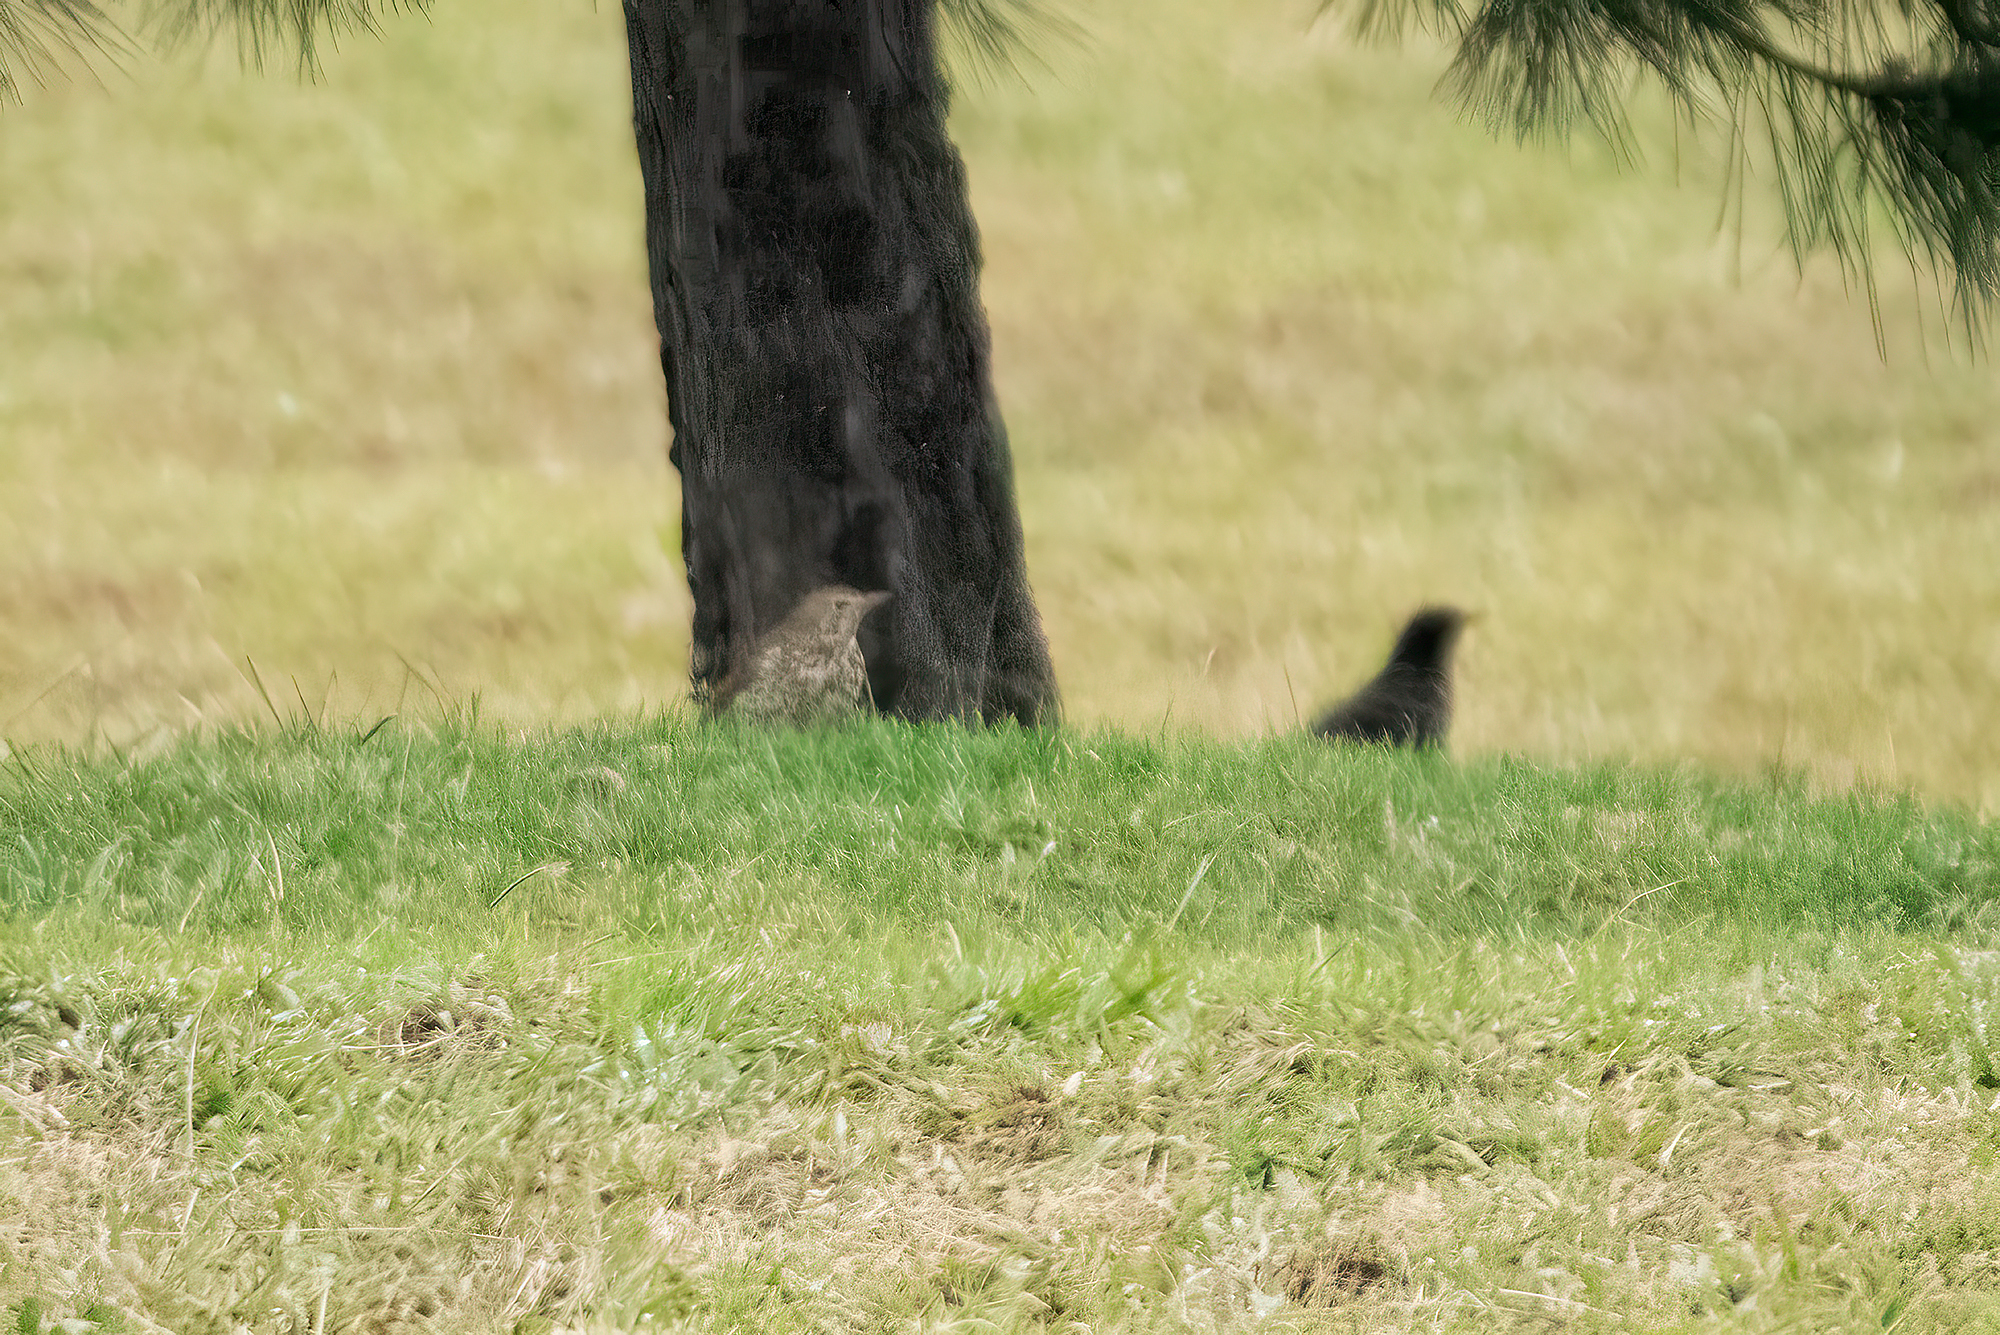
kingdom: Animalia
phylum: Chordata
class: Aves
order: Passeriformes
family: Turdidae
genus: Turdus
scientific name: Turdus philomelos
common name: Song thrush
